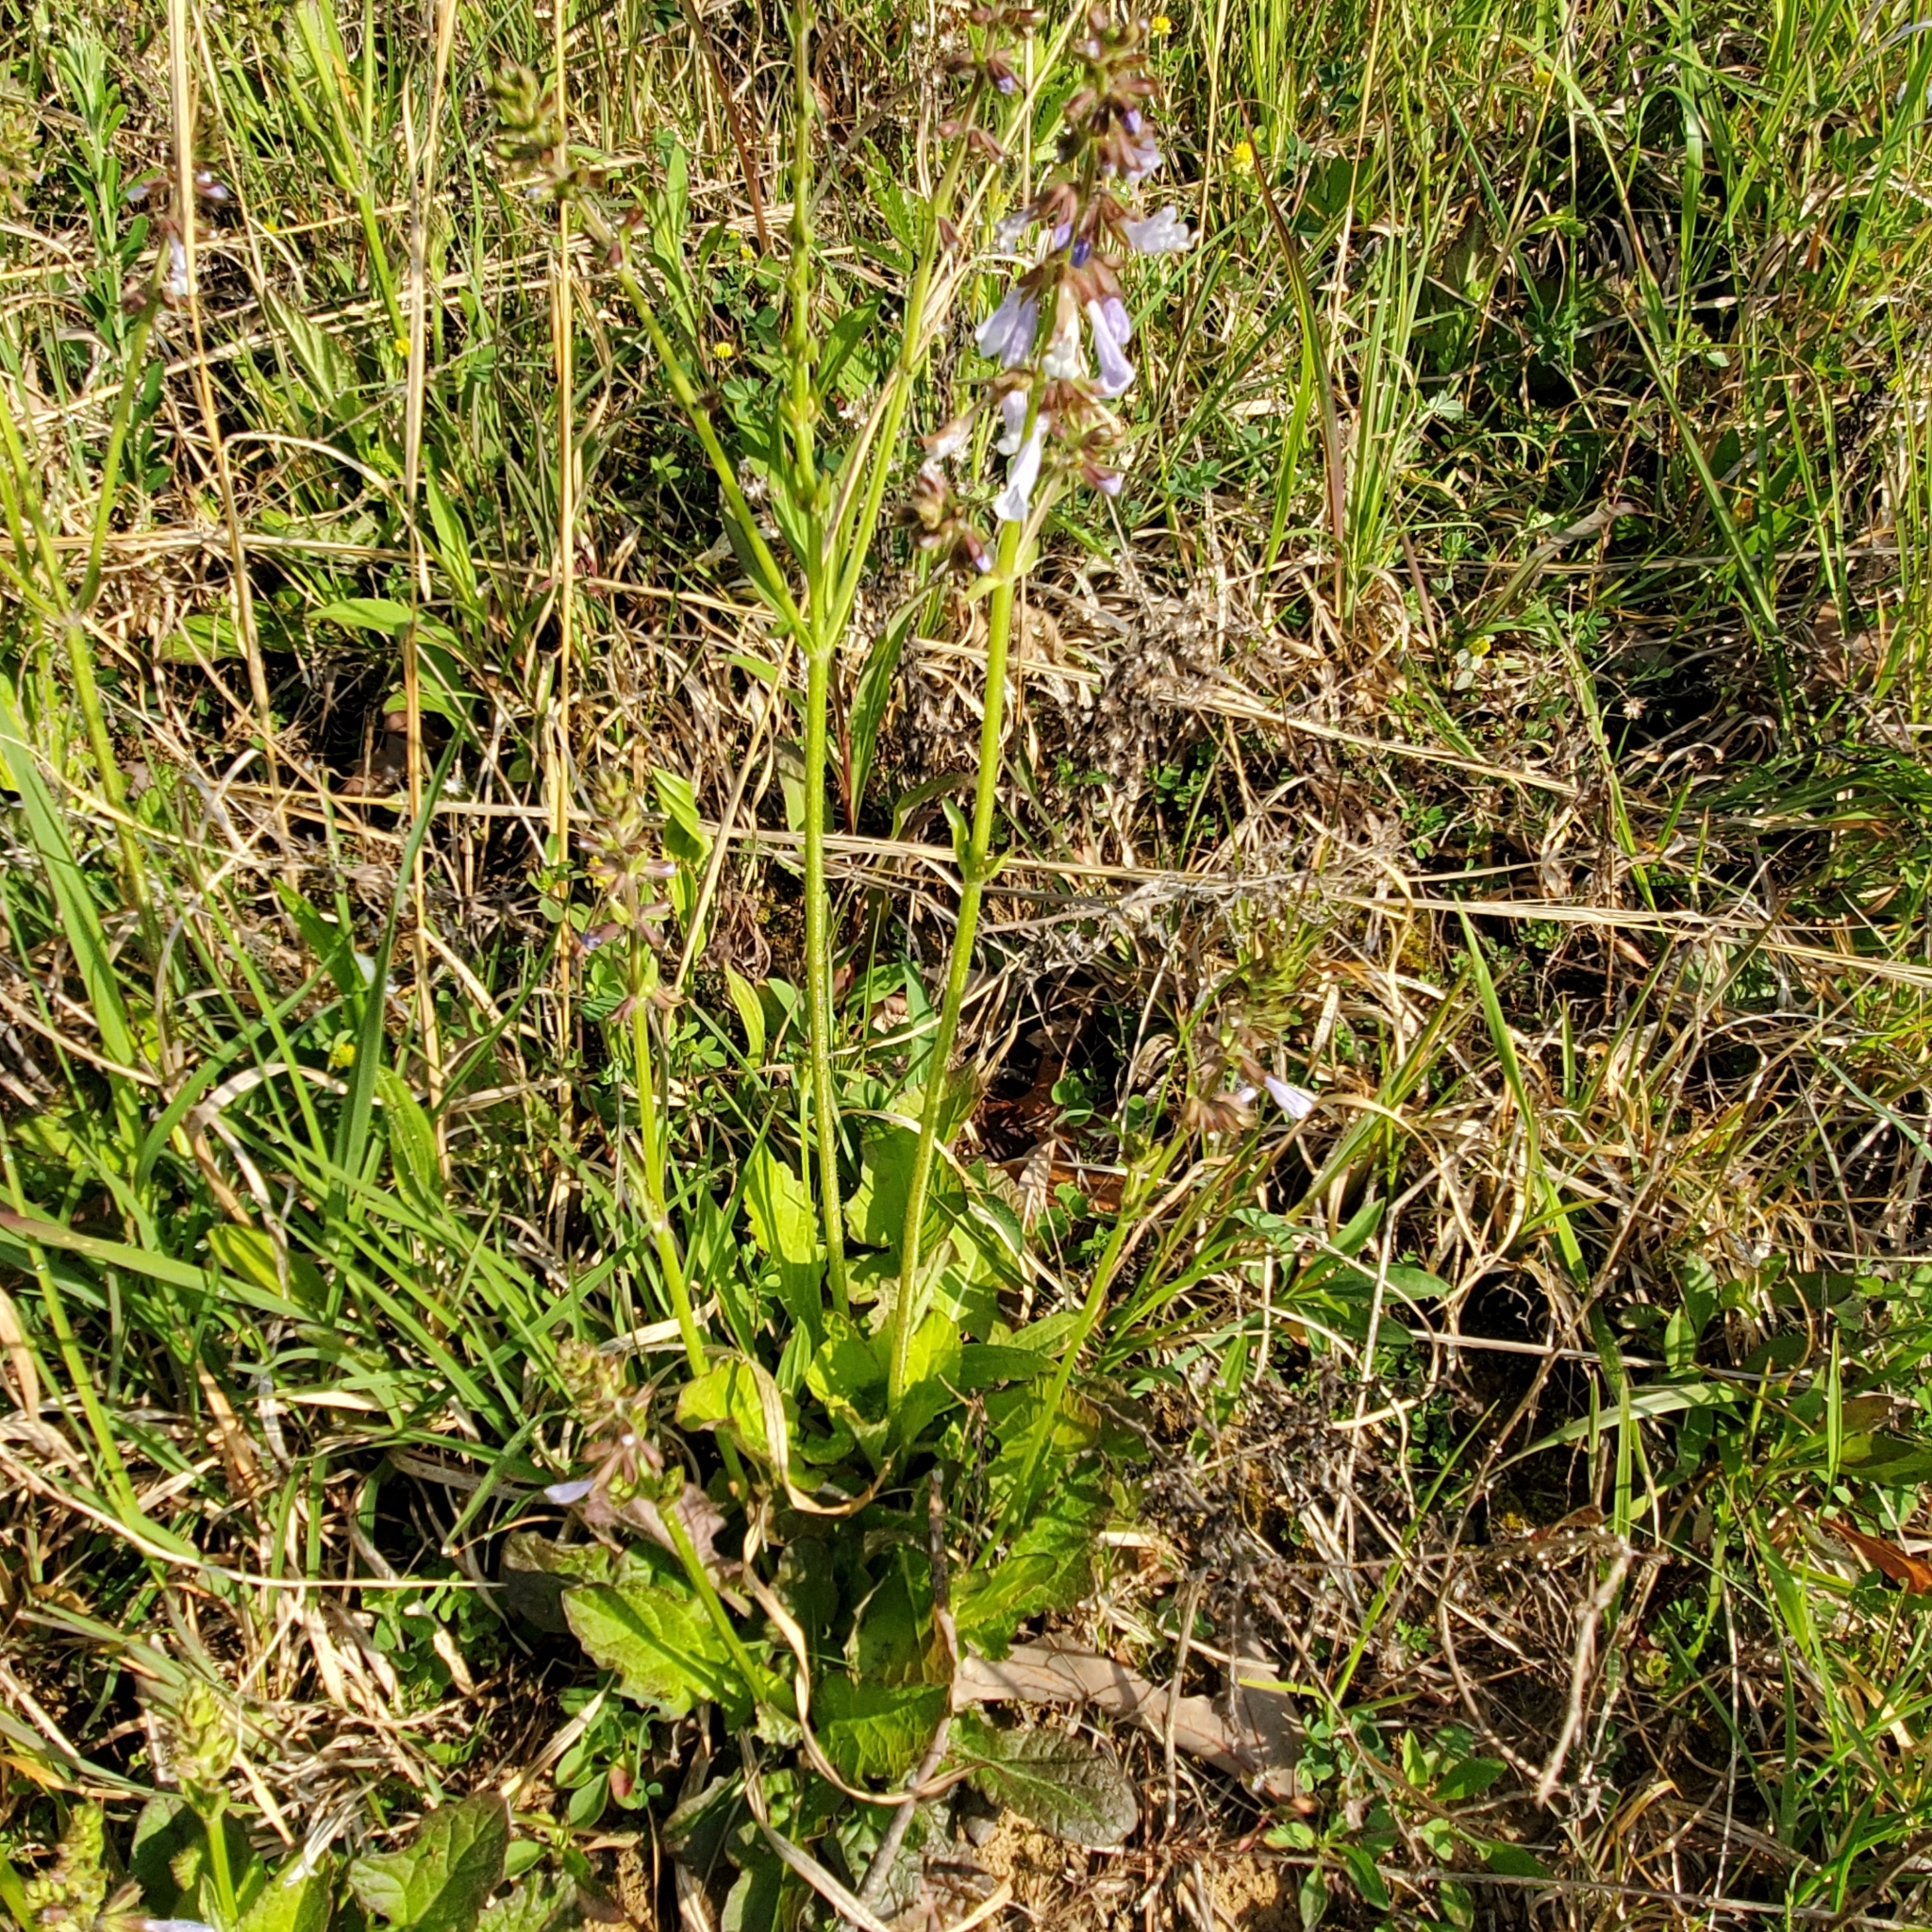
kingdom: Plantae
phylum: Tracheophyta
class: Magnoliopsida
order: Lamiales
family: Lamiaceae
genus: Salvia
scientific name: Salvia lyrata
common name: Cancerweed
